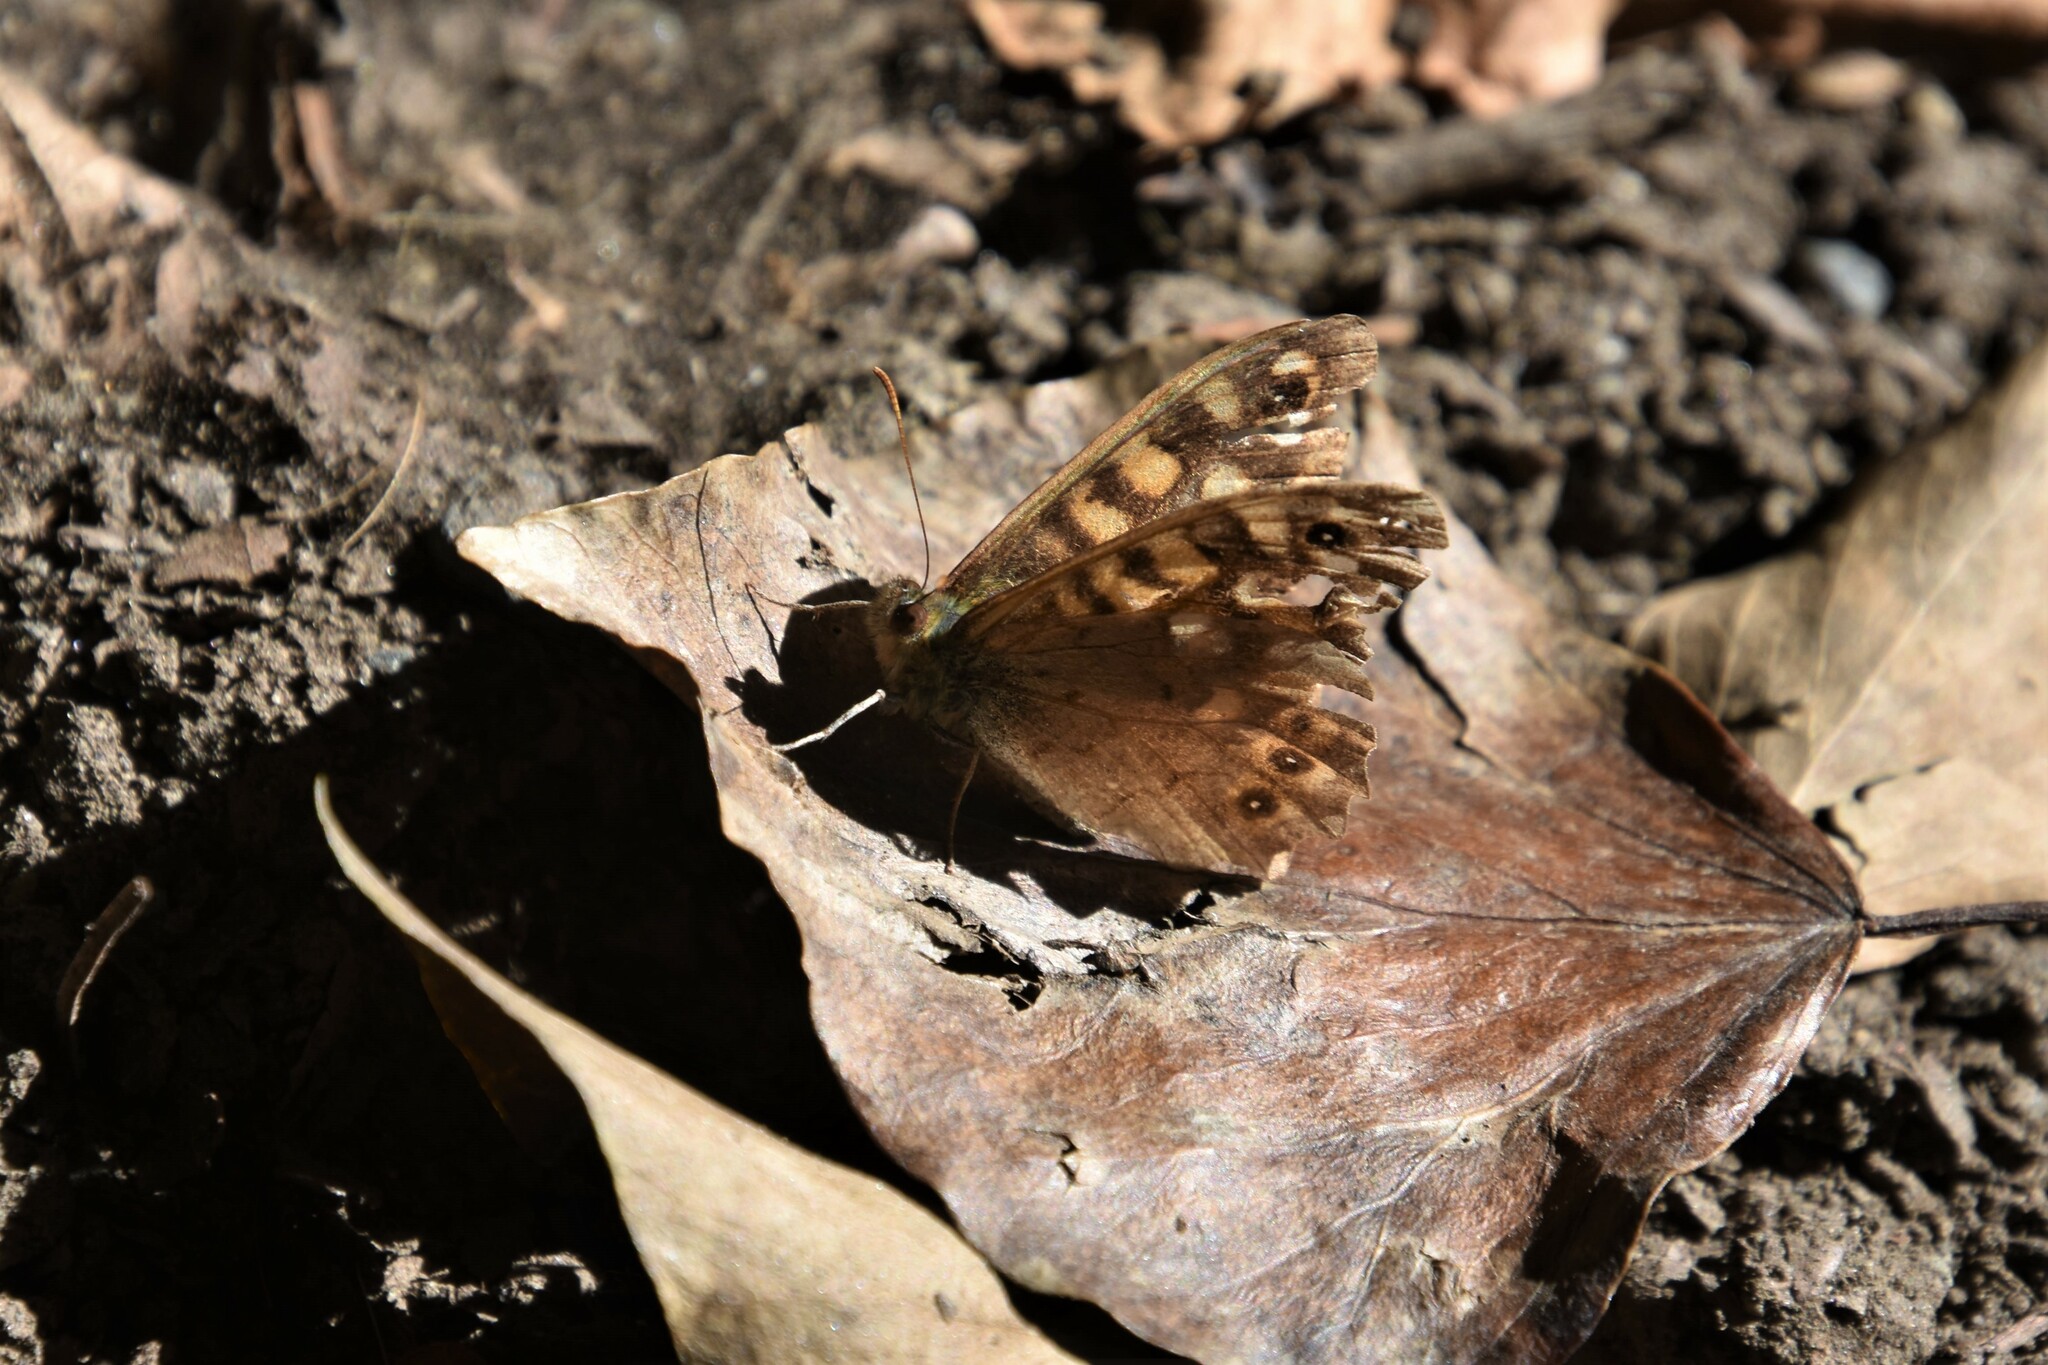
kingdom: Animalia
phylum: Arthropoda
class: Insecta
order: Lepidoptera
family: Nymphalidae
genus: Pararge
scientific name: Pararge aegeria
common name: Speckled wood
